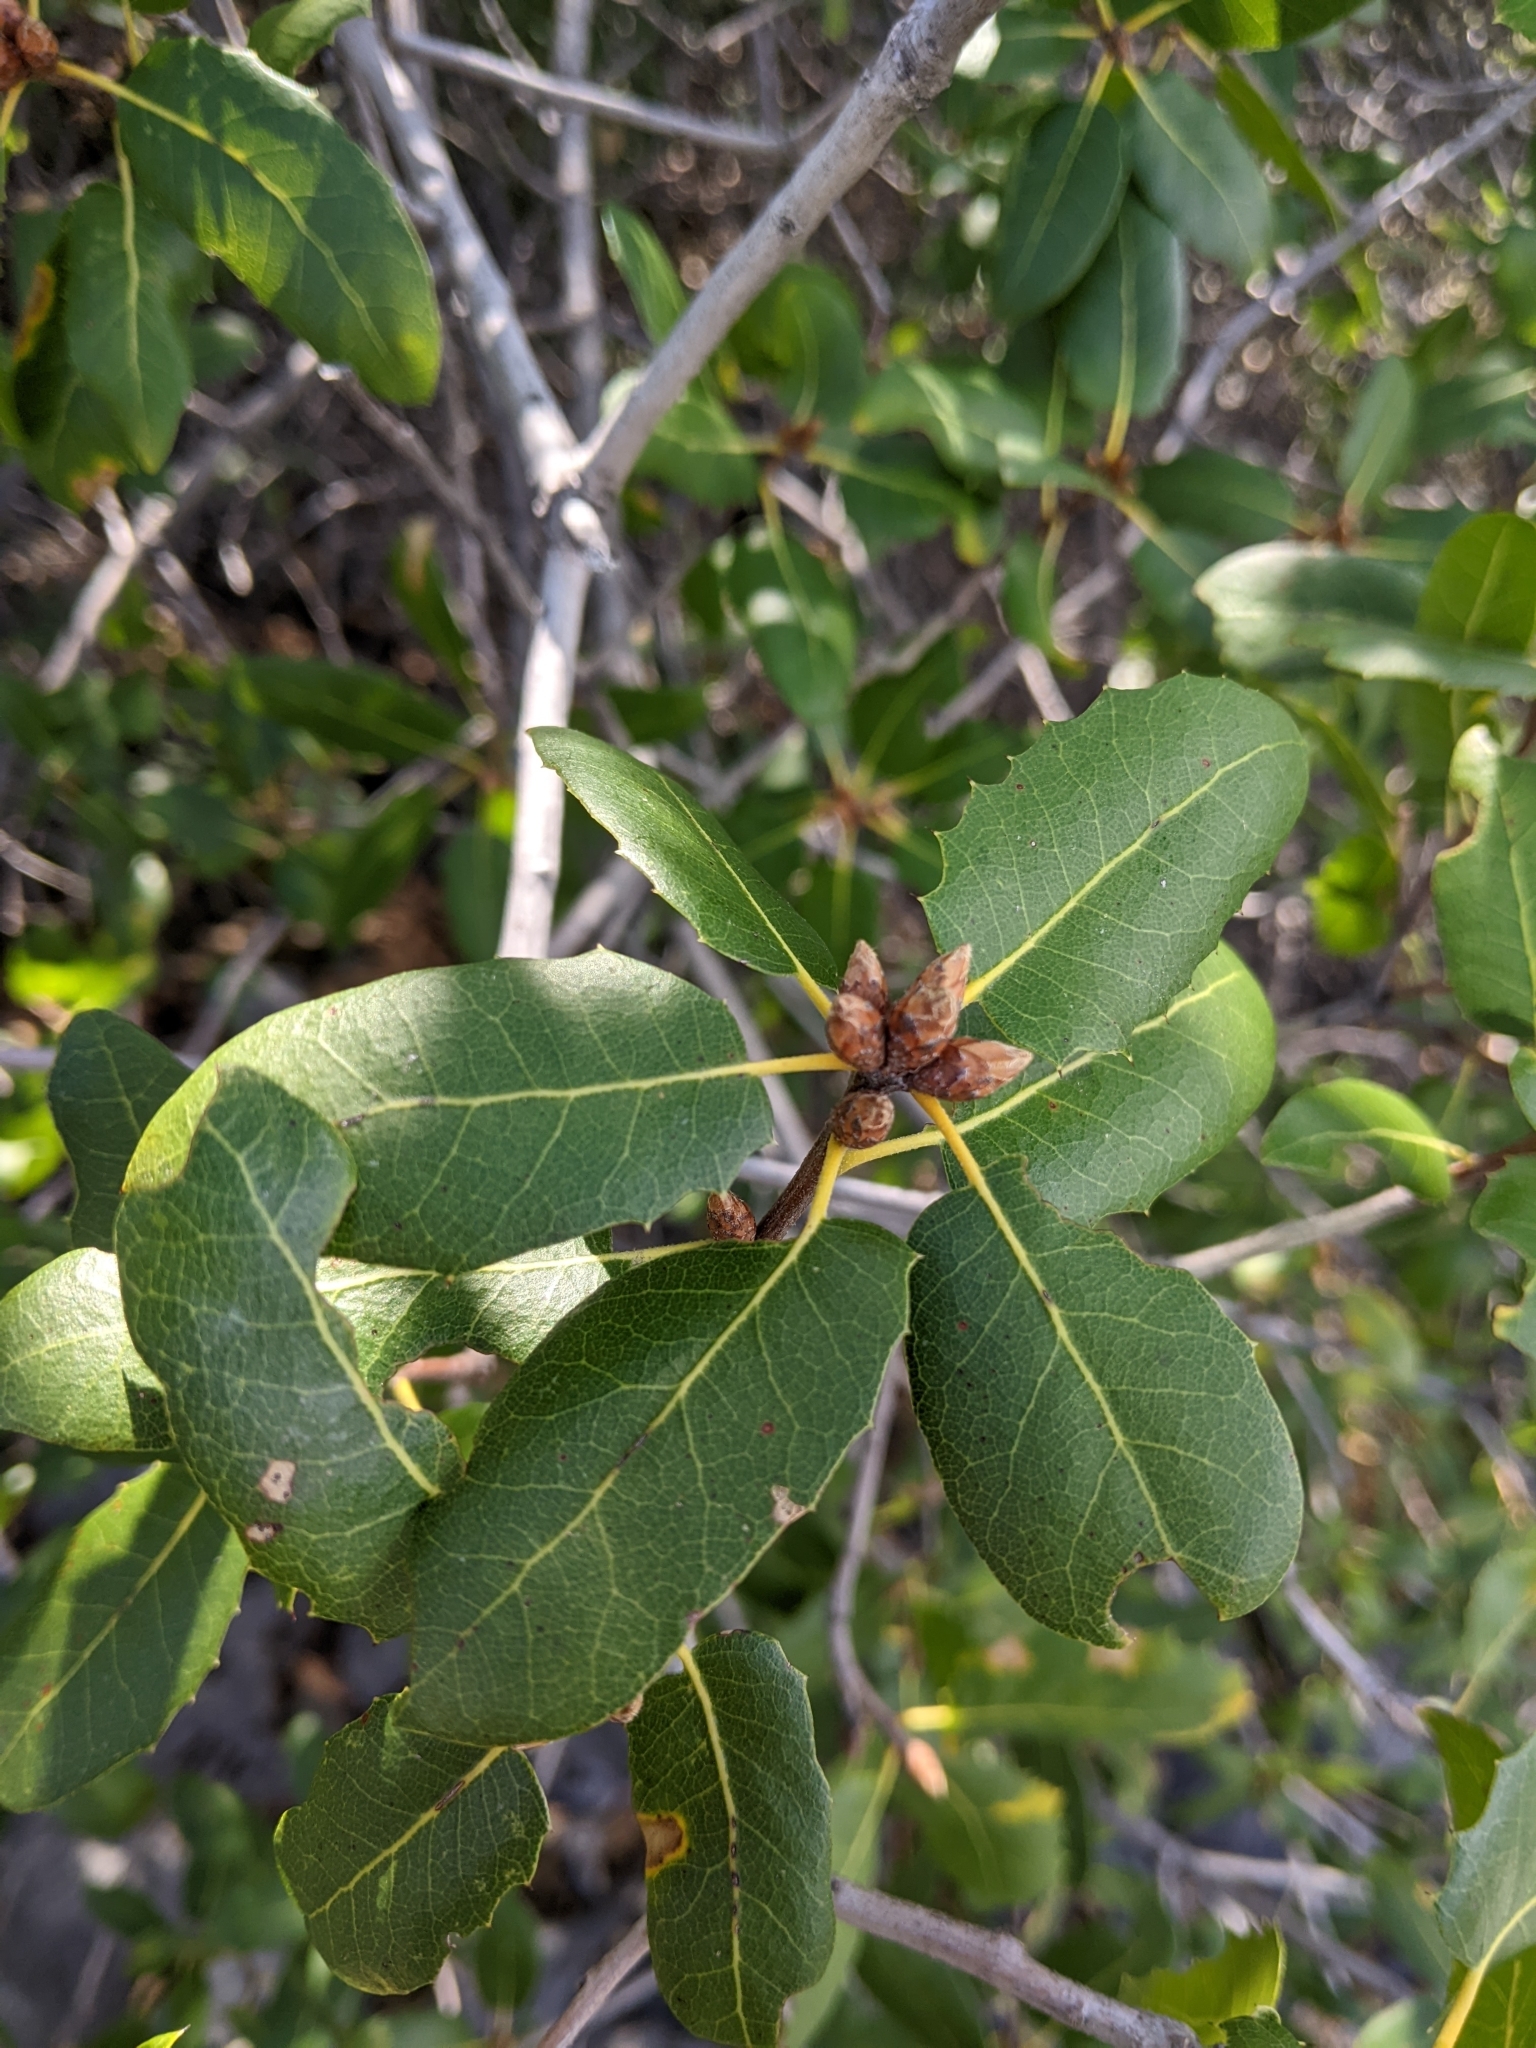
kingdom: Plantae
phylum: Tracheophyta
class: Magnoliopsida
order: Fagales
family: Fagaceae
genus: Quercus
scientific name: Quercus wislizeni
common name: Interior live oak
